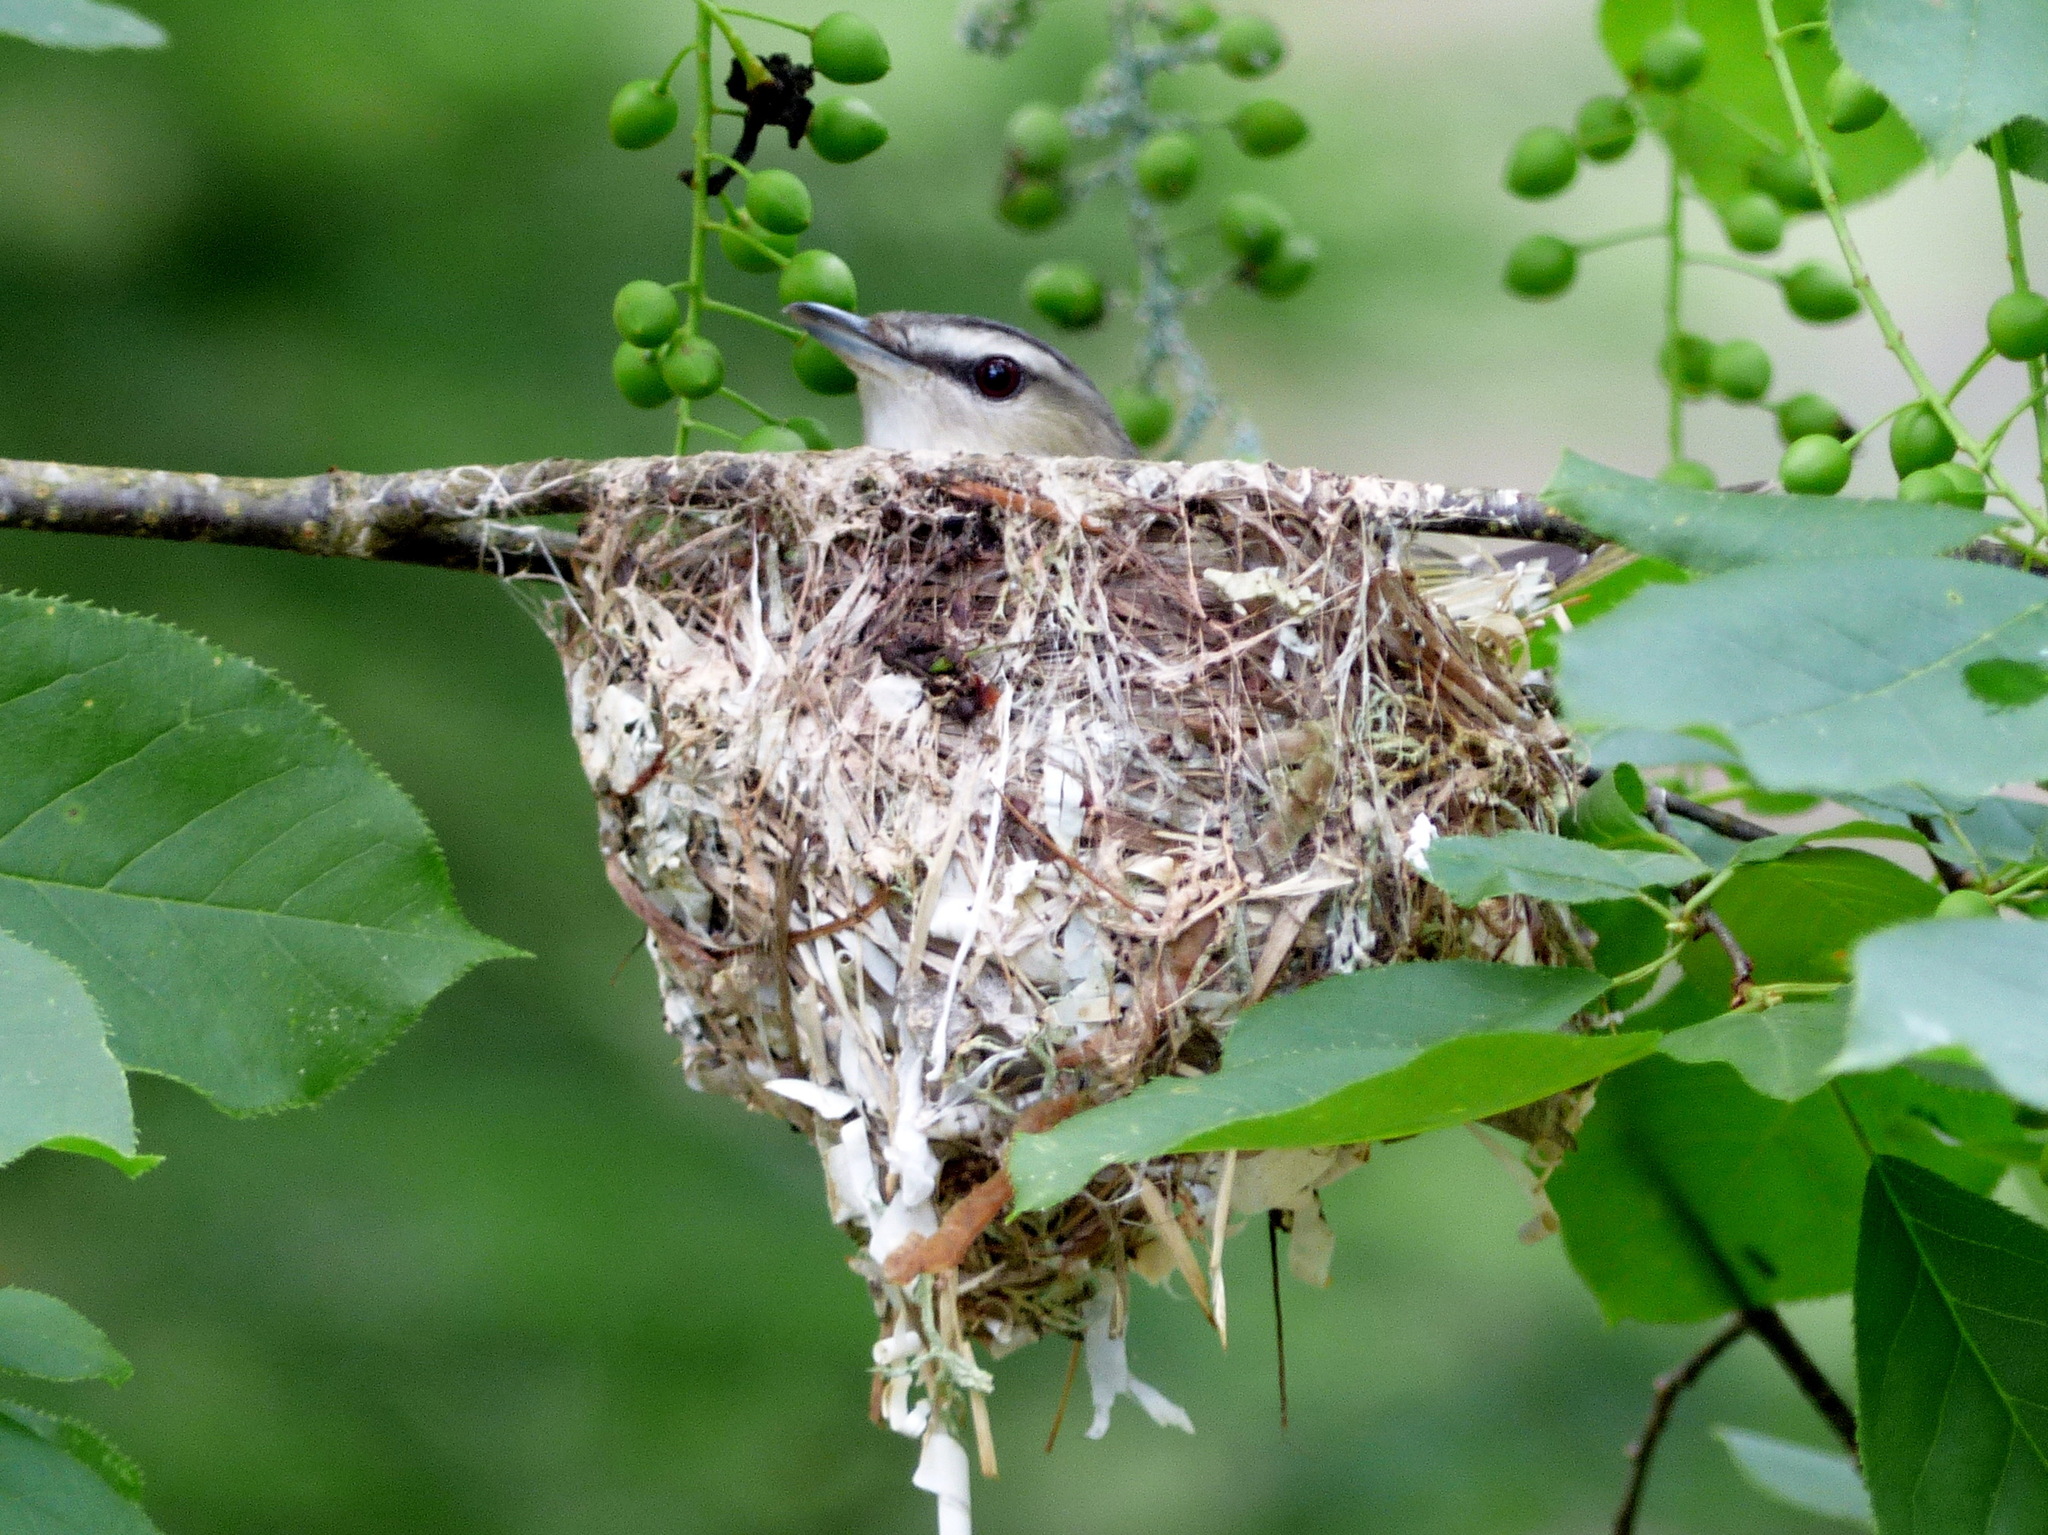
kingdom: Animalia
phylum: Chordata
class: Aves
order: Passeriformes
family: Vireonidae
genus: Vireo
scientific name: Vireo olivaceus
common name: Red-eyed vireo
